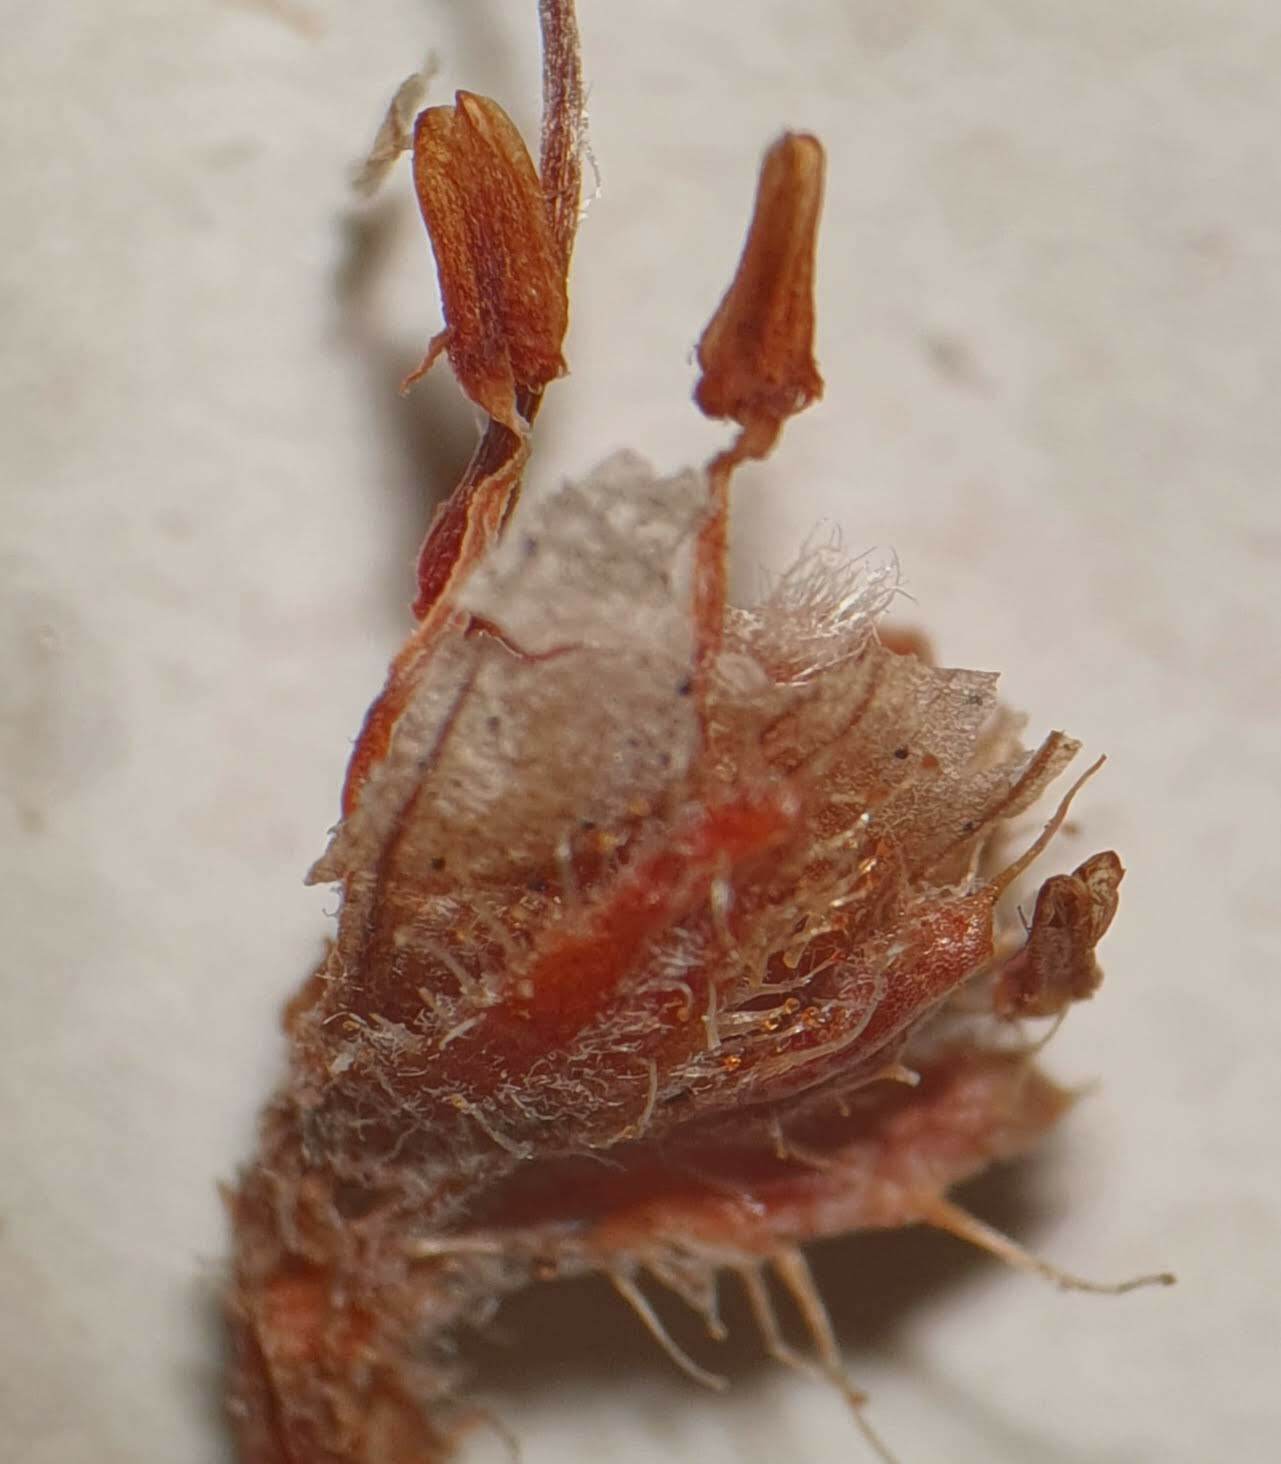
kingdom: Plantae
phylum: Tracheophyta
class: Magnoliopsida
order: Ericales
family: Ericaceae
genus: Erica
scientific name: Erica coacervata
